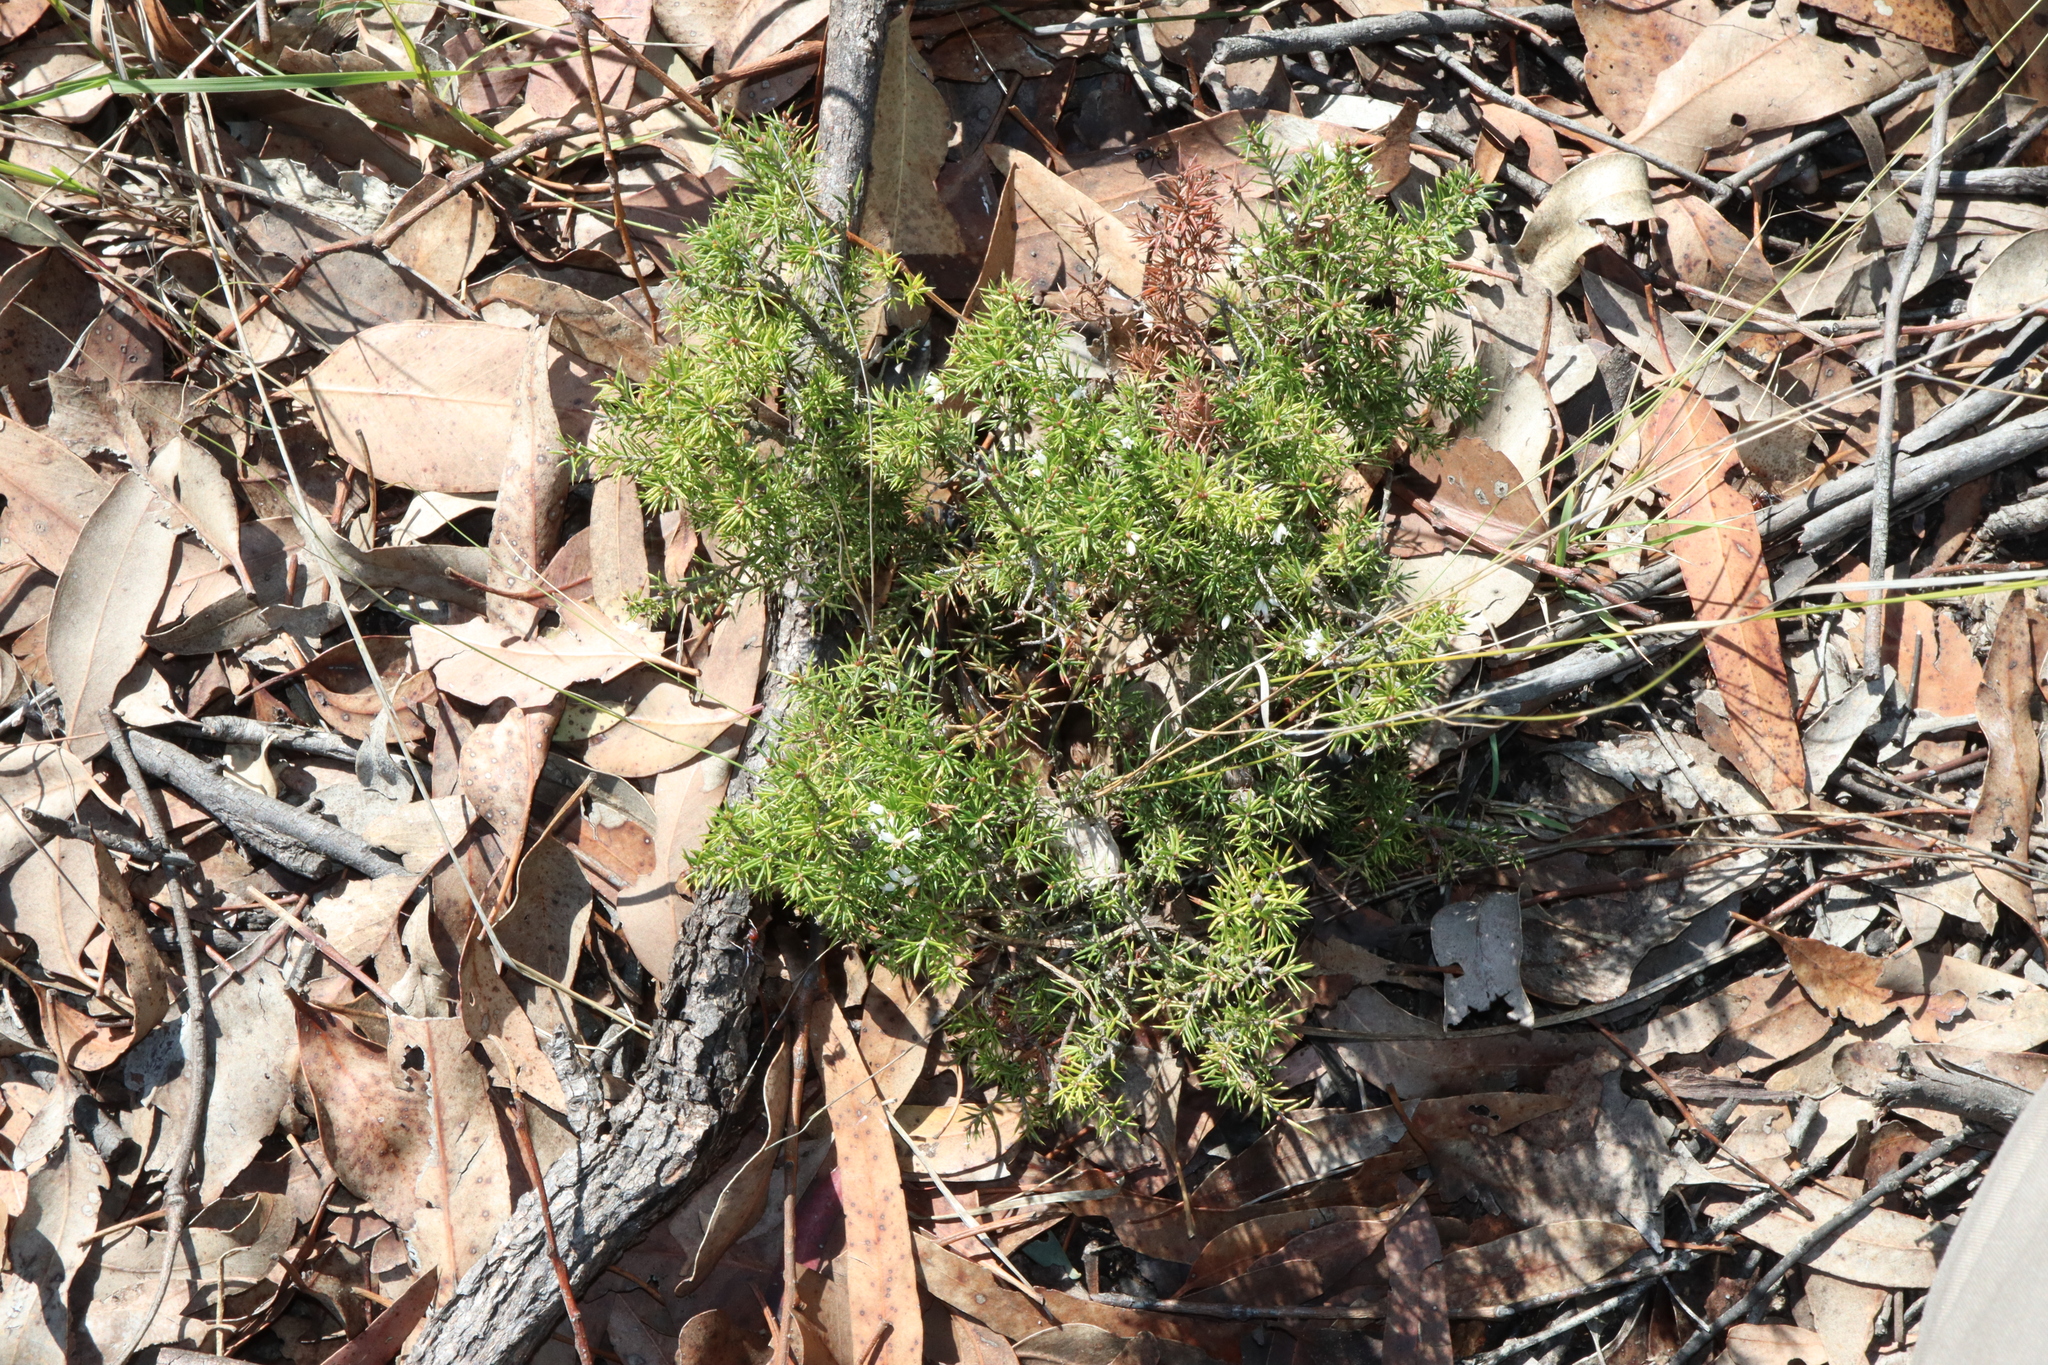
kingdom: Plantae
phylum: Tracheophyta
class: Magnoliopsida
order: Ericales
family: Ericaceae
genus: Lissanthe
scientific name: Lissanthe strigosa
